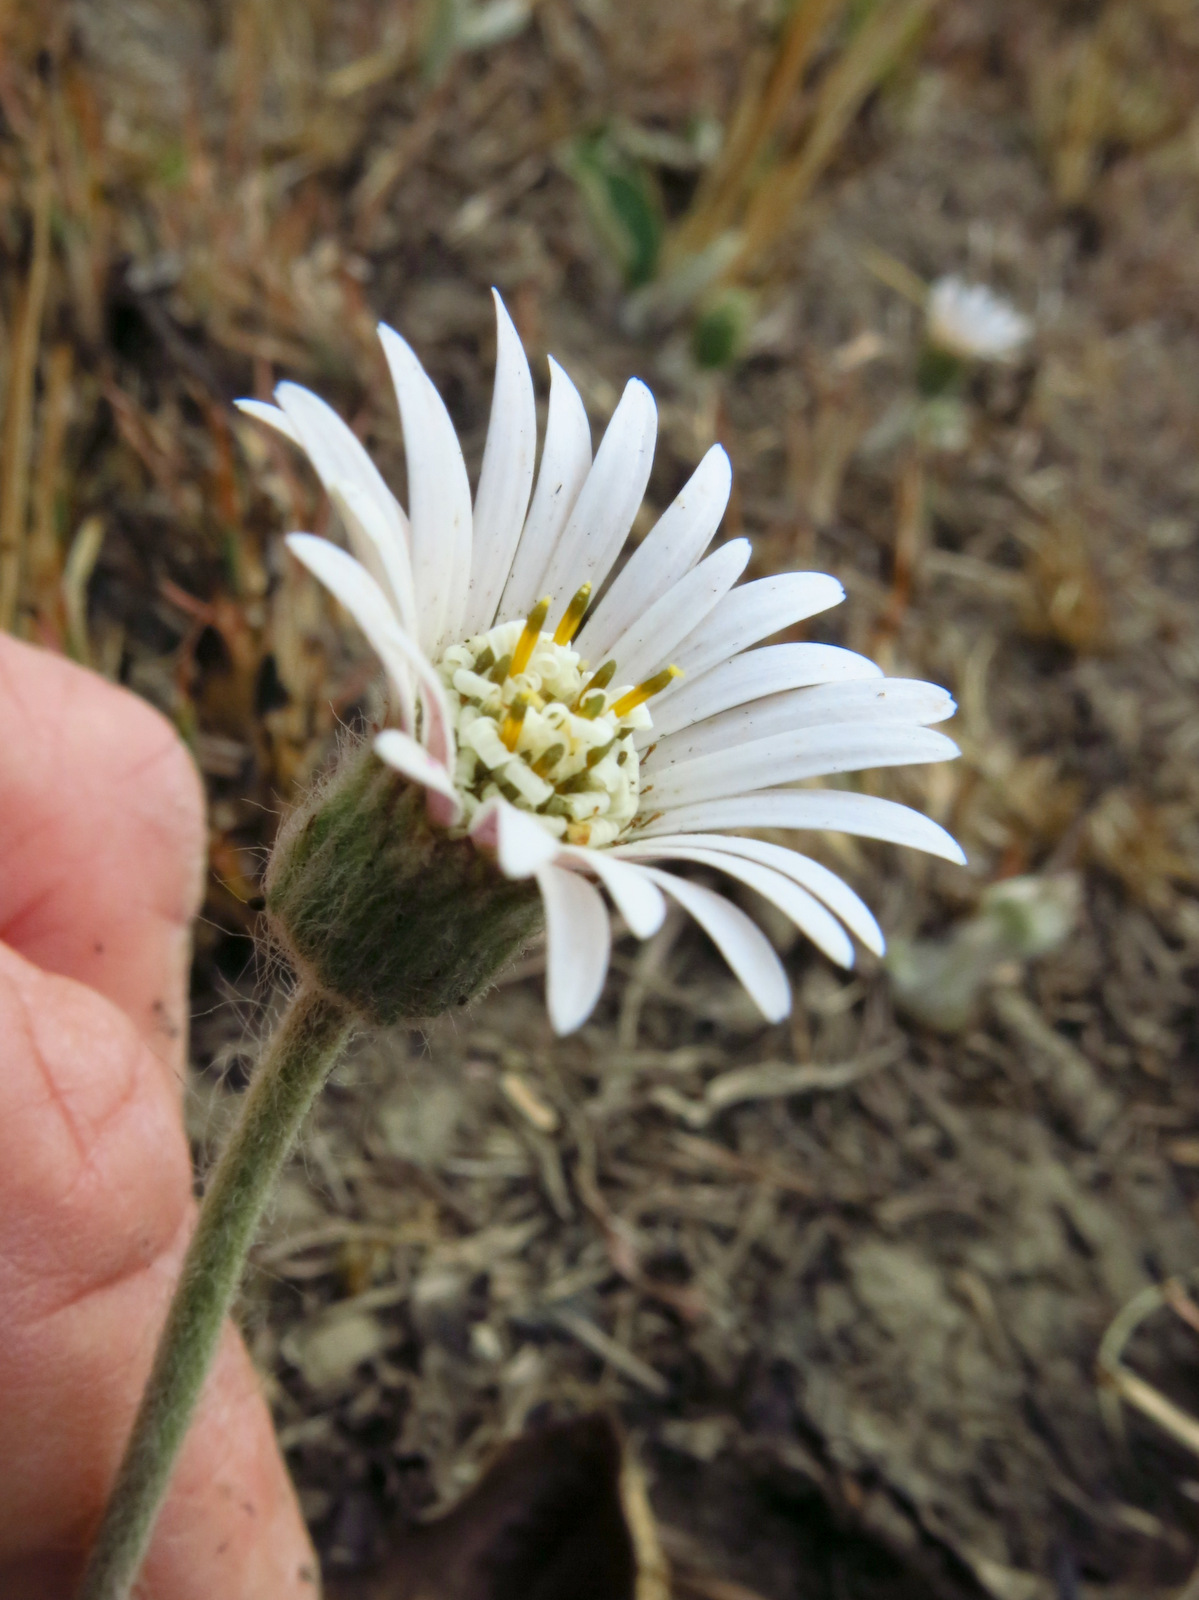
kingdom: Plantae
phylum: Tracheophyta
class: Magnoliopsida
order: Asterales
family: Asteraceae
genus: Gerbera
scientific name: Gerbera ambigua
